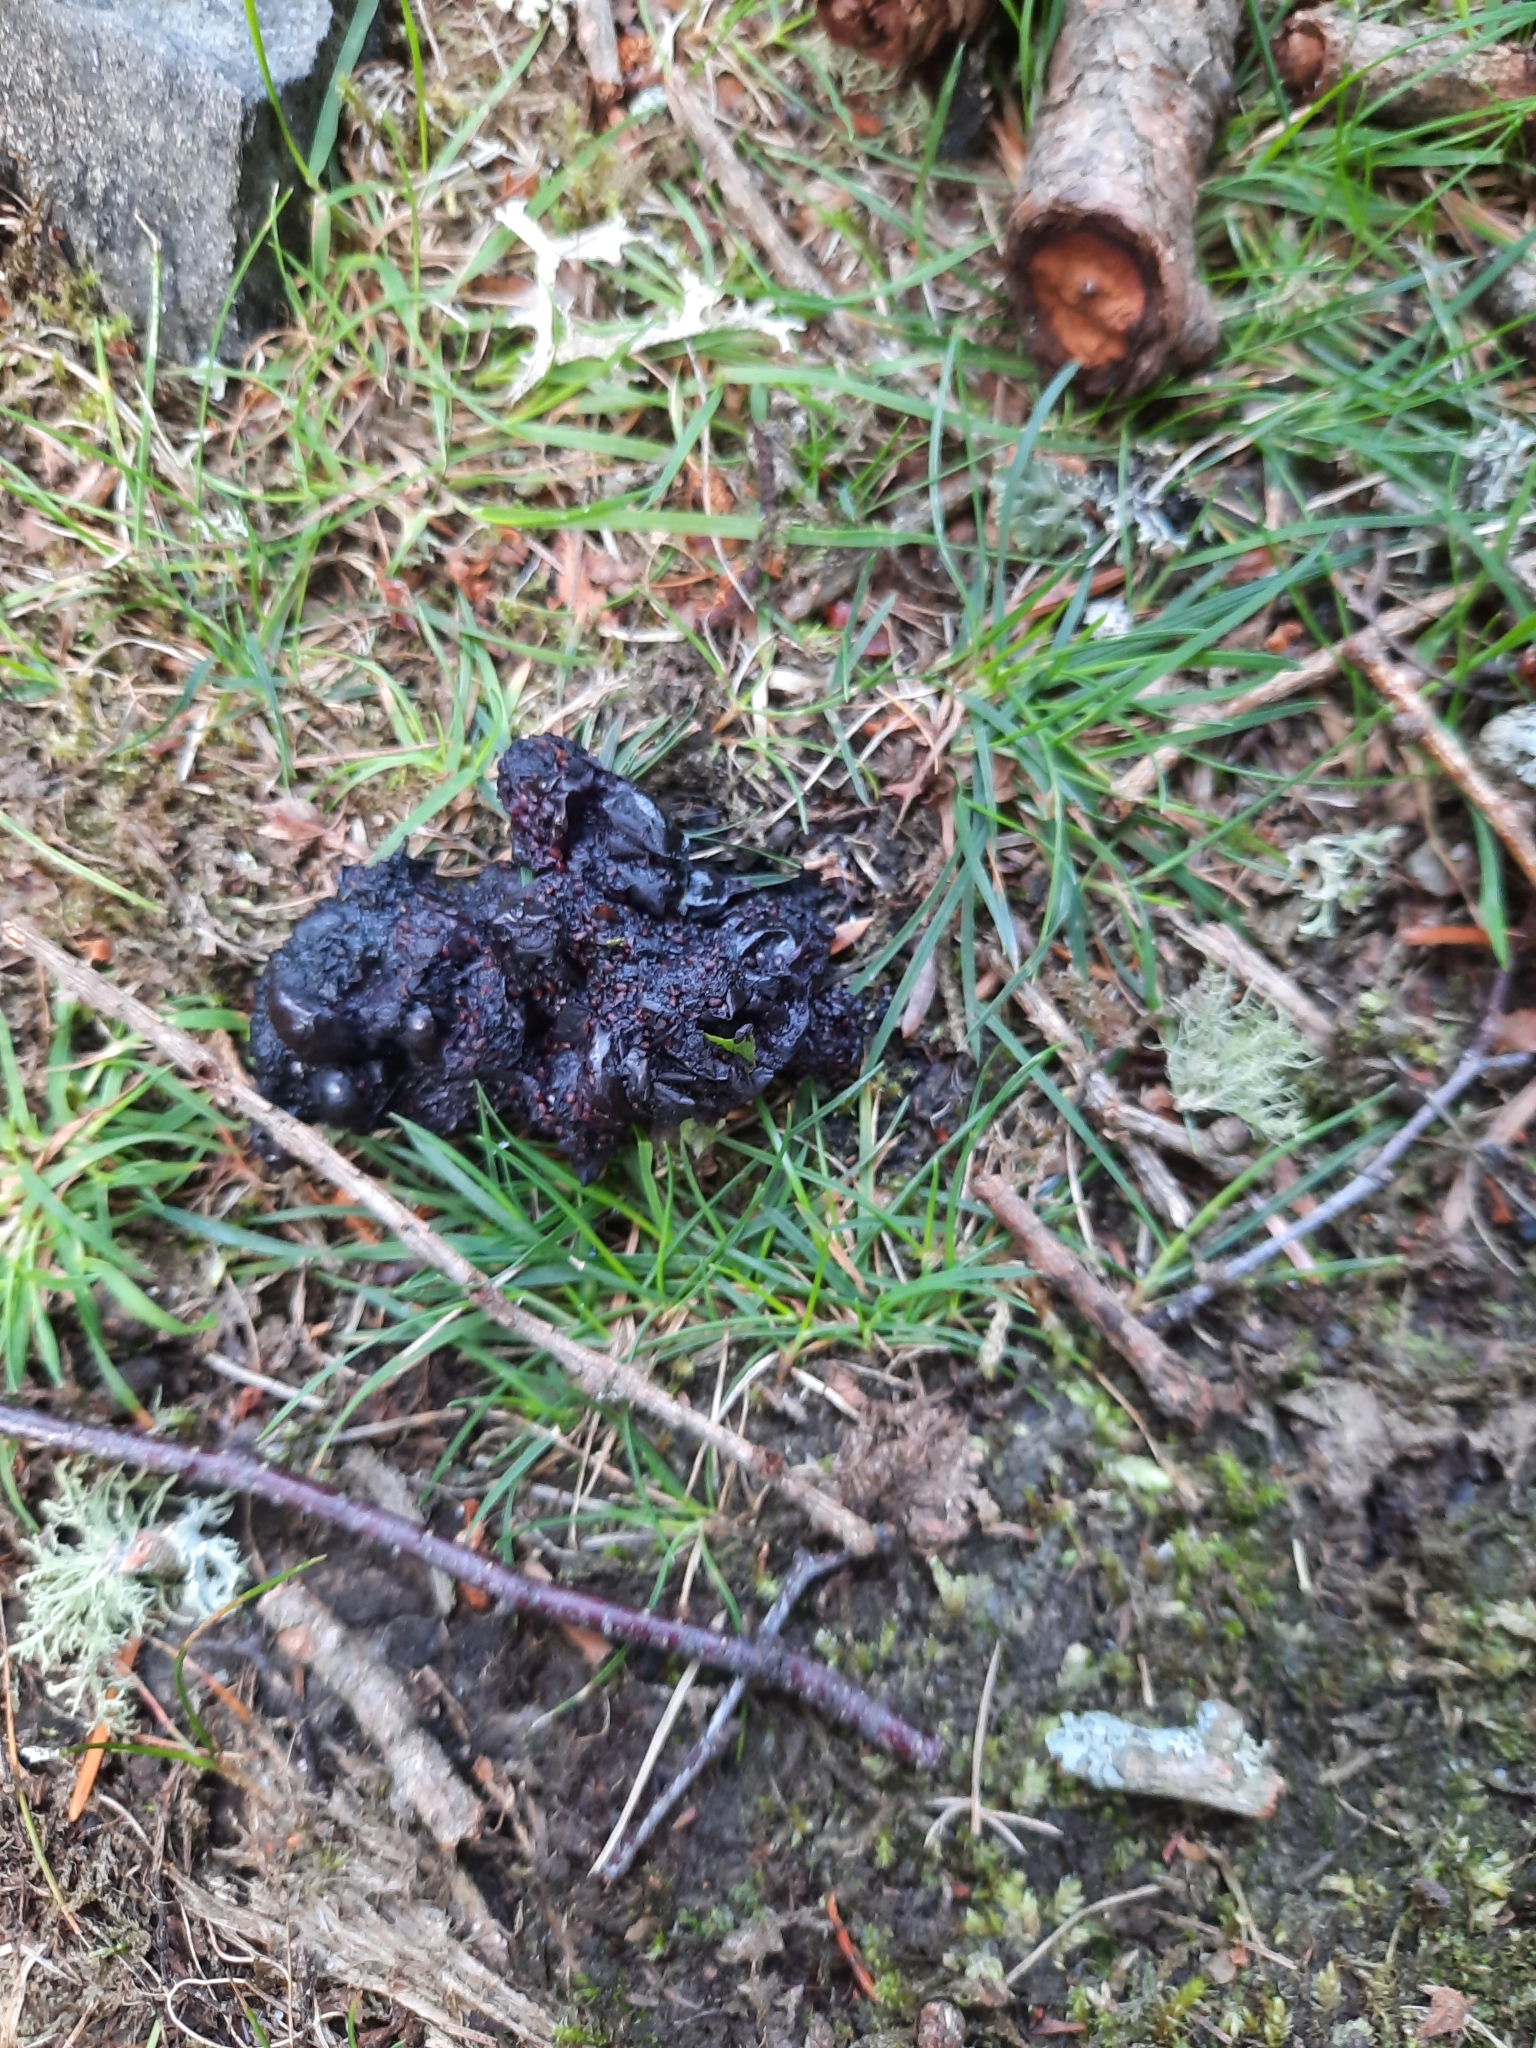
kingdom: Animalia
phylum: Chordata
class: Mammalia
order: Carnivora
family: Mustelidae
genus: Martes
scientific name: Martes martes
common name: European pine marten
